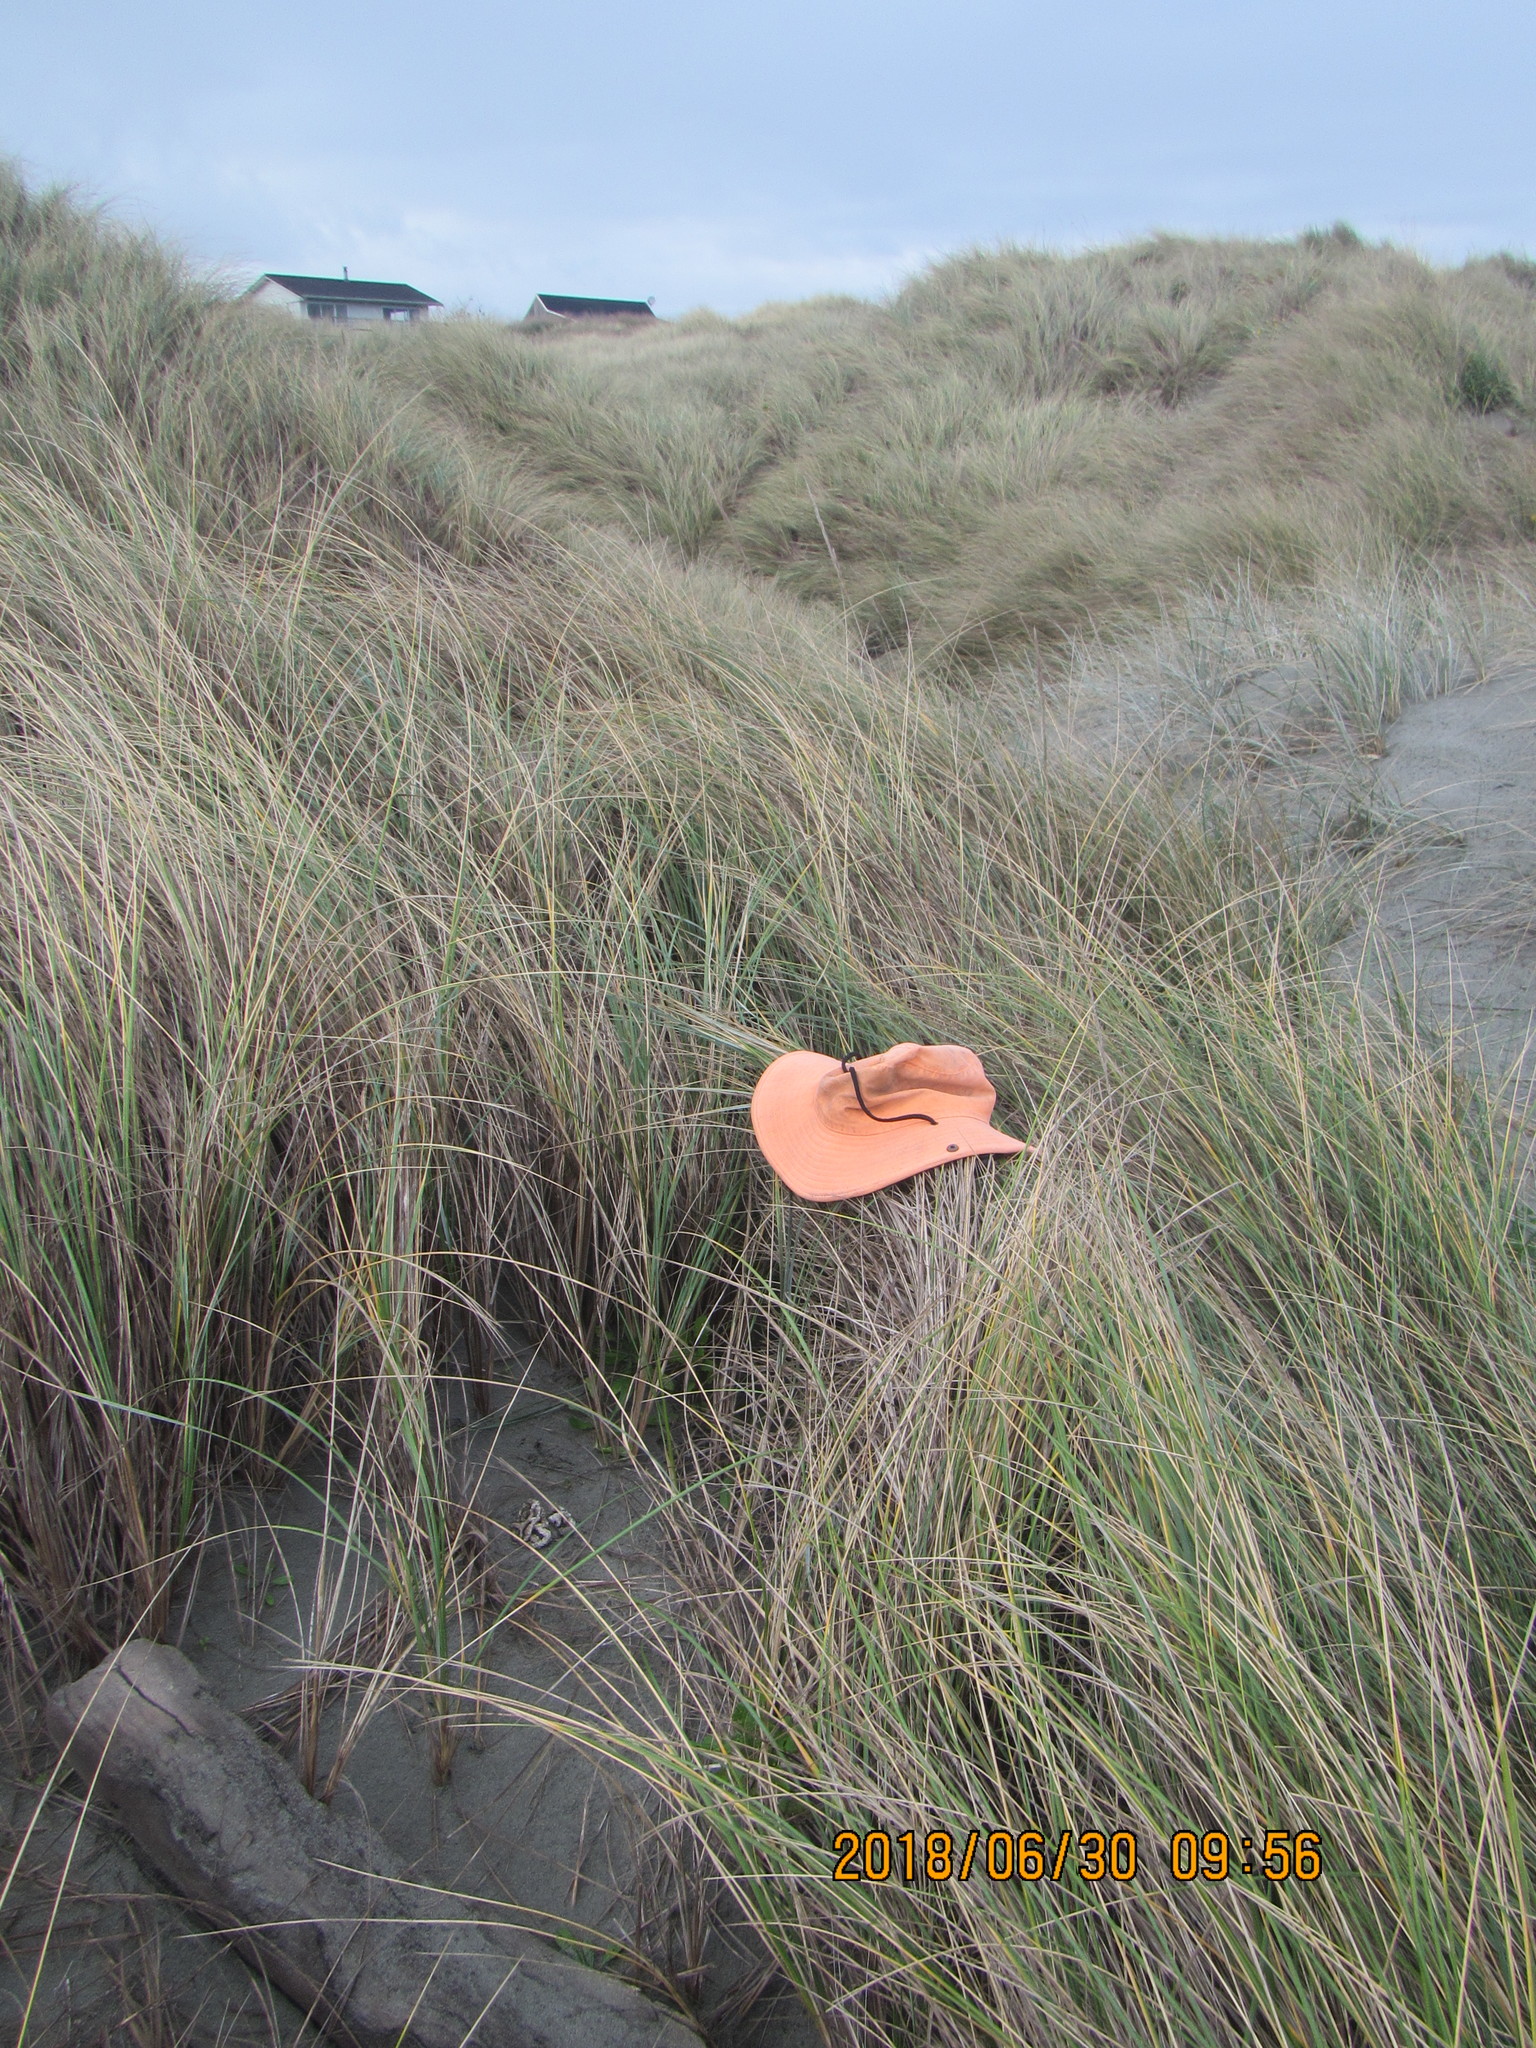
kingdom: Fungi
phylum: Basidiomycota
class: Agaricomycetes
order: Phallales
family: Phallaceae
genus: Ileodictyon
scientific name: Ileodictyon cibarium
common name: Basket fungus
